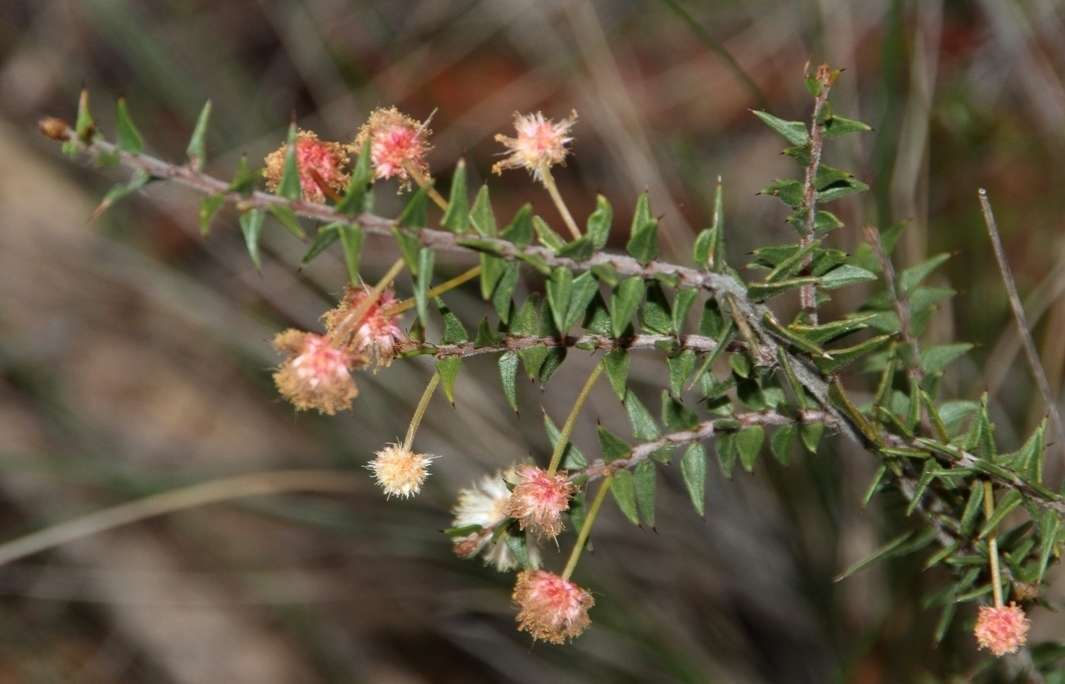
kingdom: Plantae
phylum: Tracheophyta
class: Magnoliopsida
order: Fabales
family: Fabaceae
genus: Acacia
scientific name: Acacia gunnii
